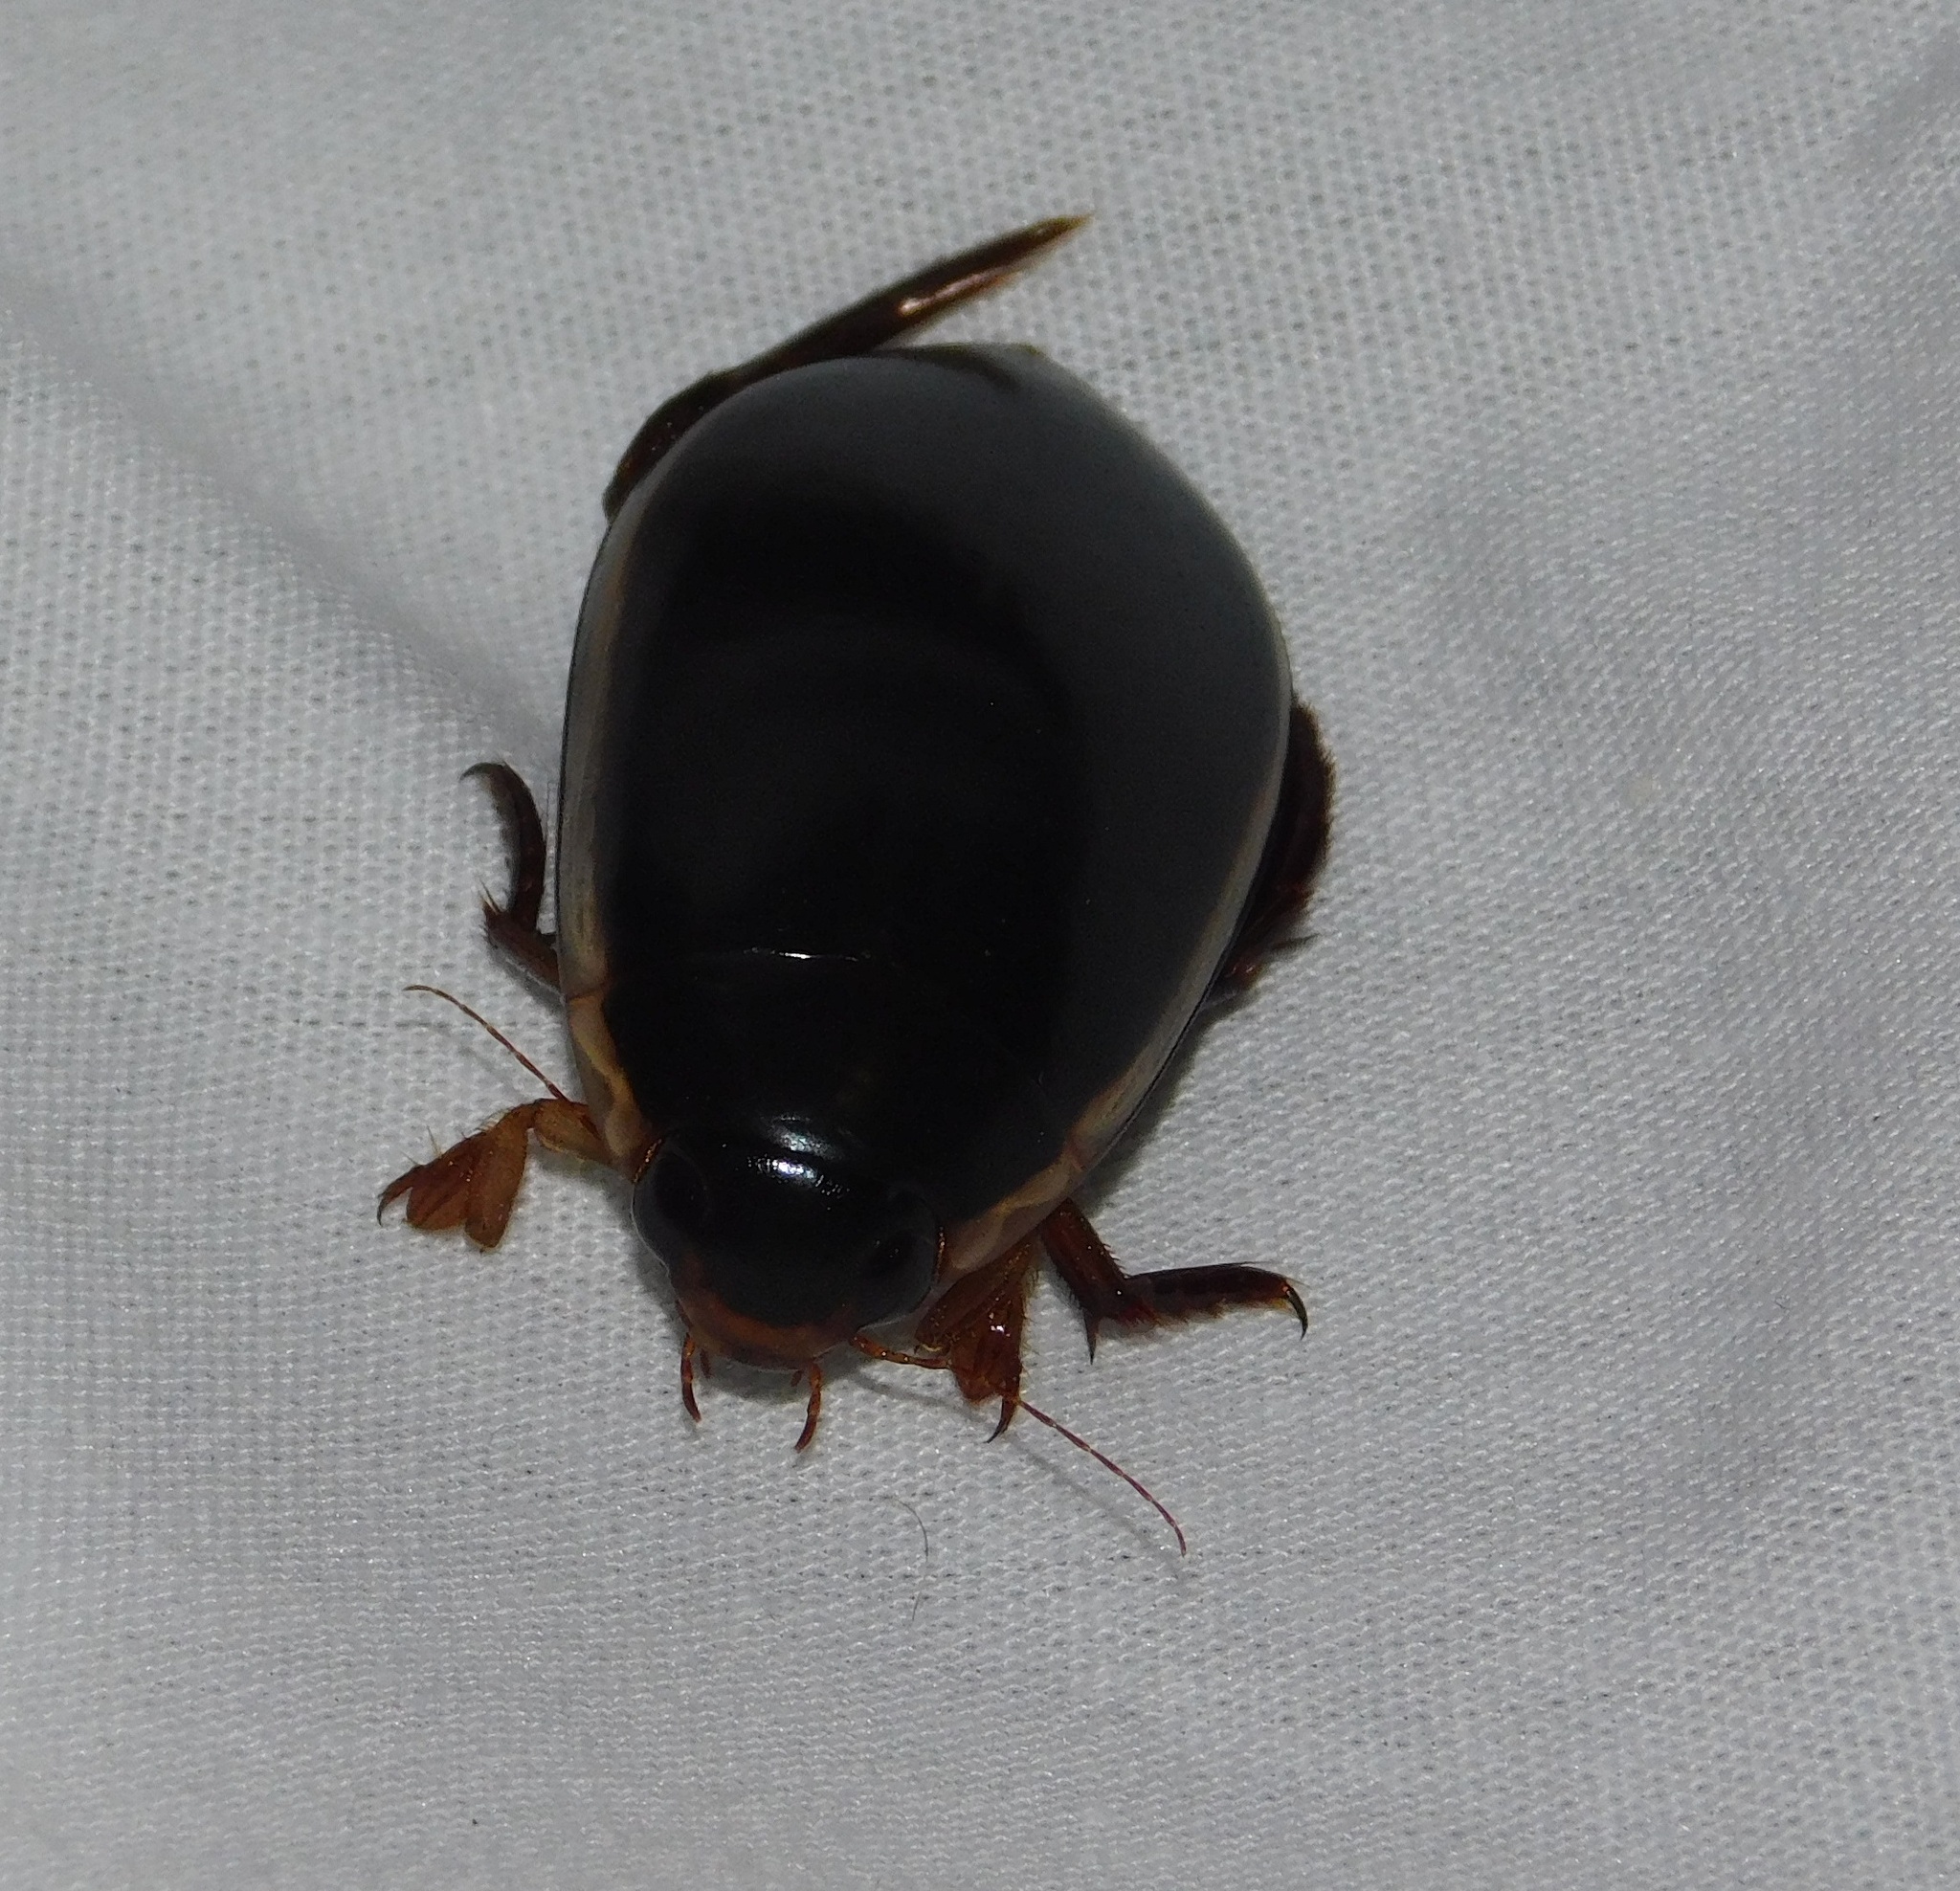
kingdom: Animalia
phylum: Arthropoda
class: Insecta
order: Coleoptera
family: Dytiscidae
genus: Cybister
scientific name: Cybister fimbriolatus
